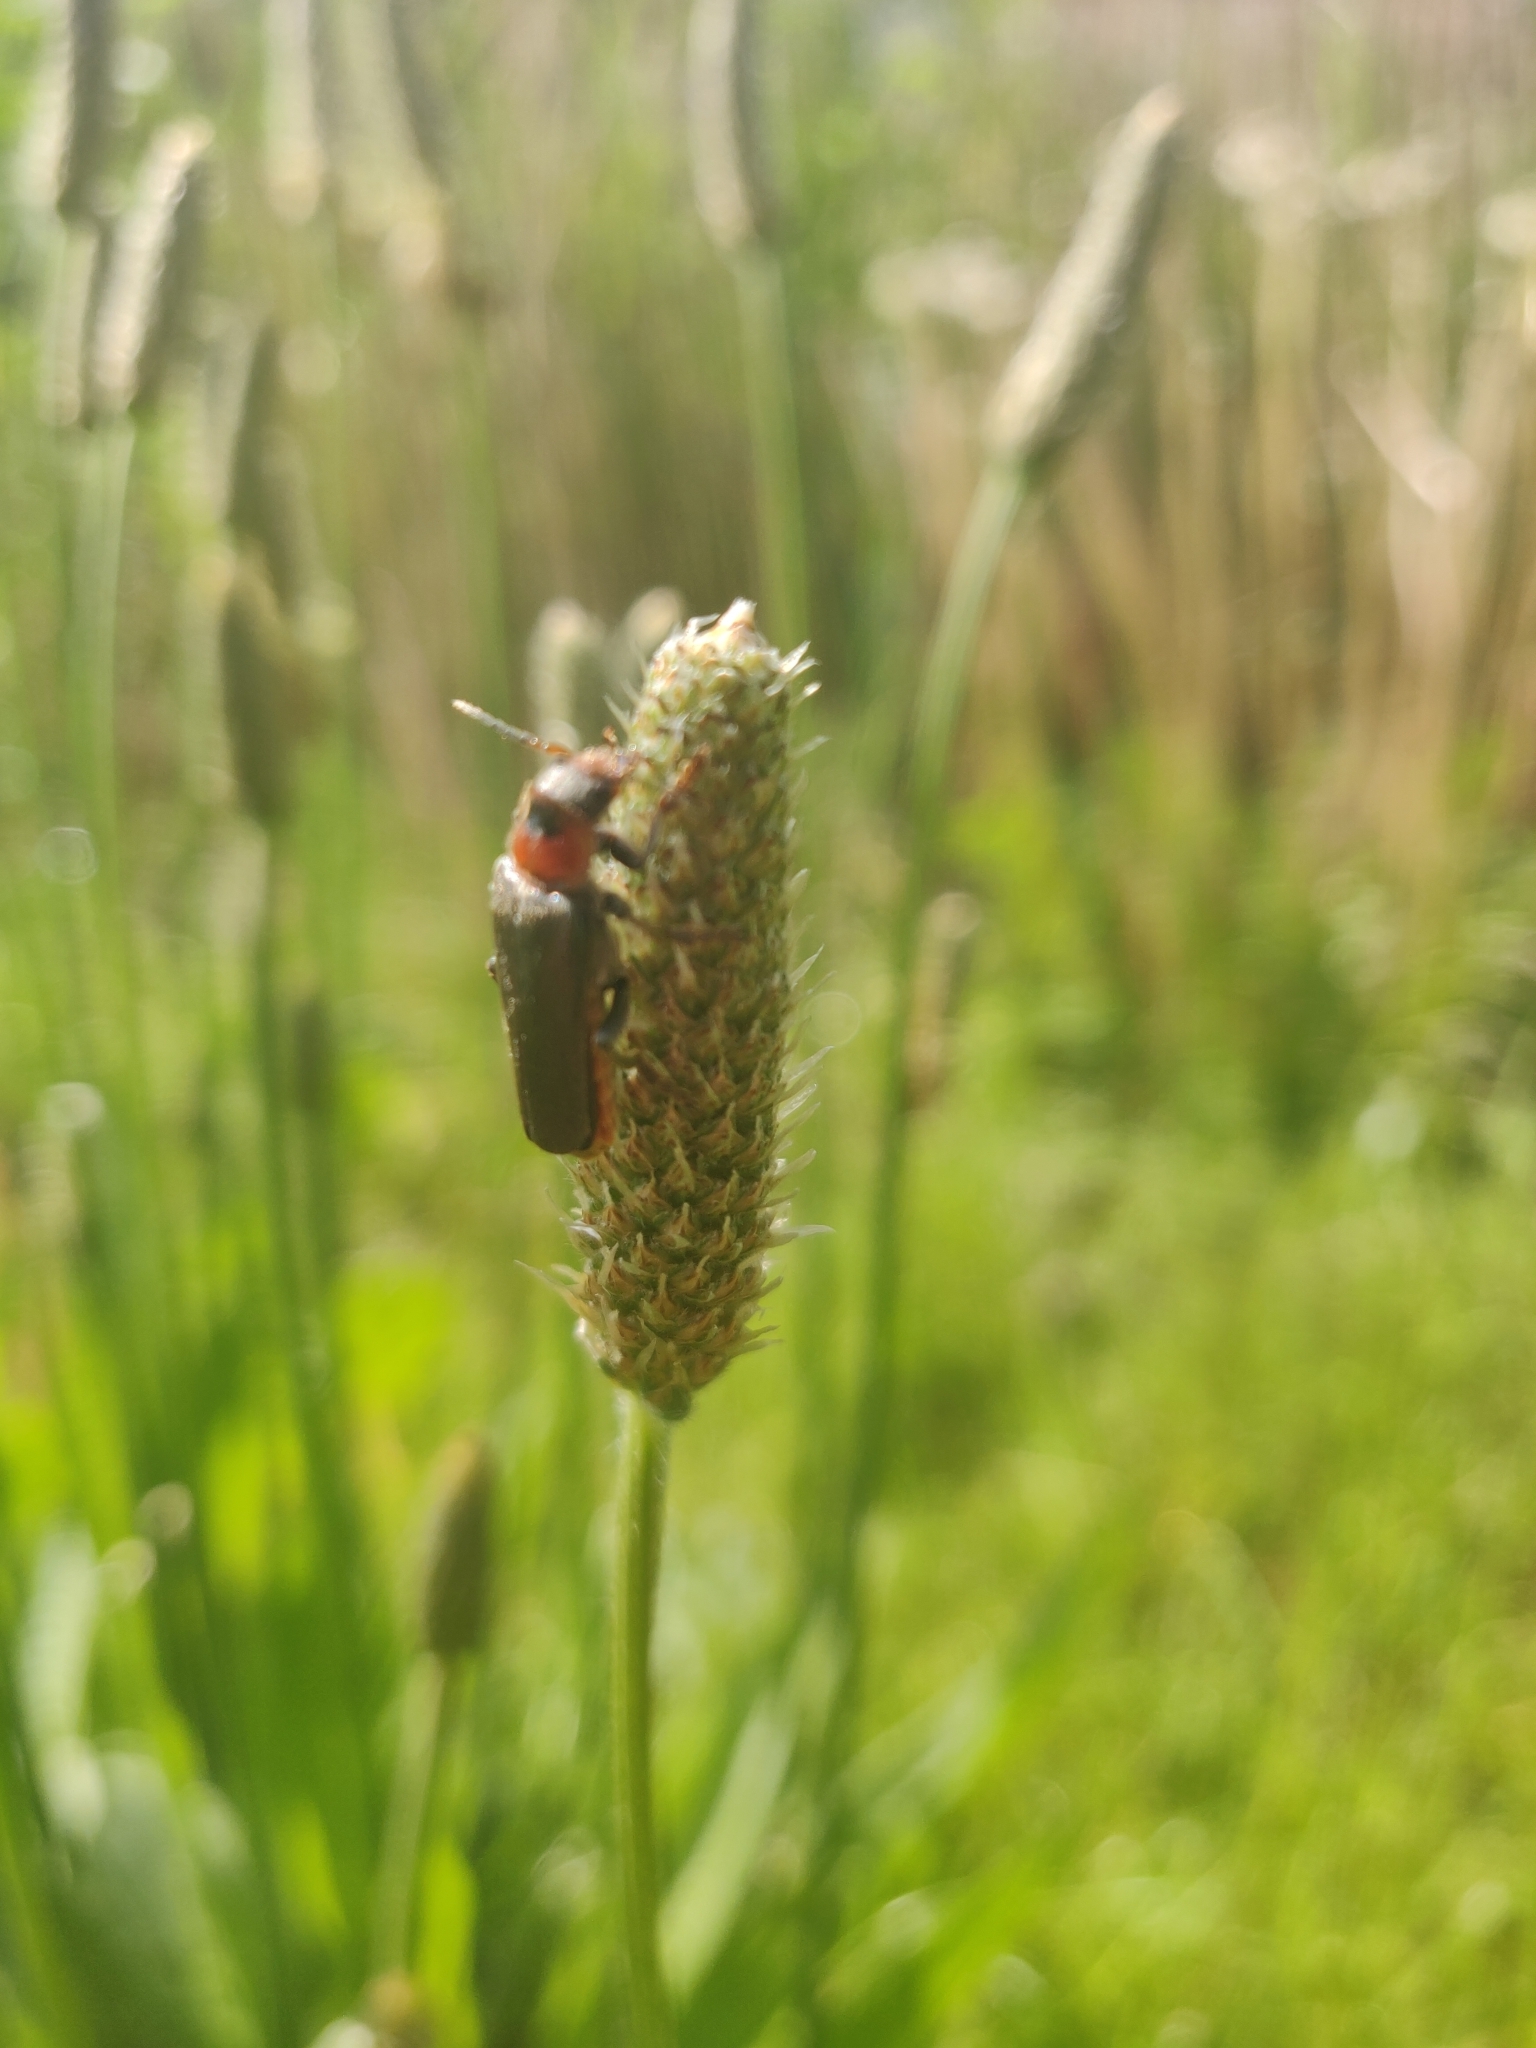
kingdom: Animalia
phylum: Arthropoda
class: Insecta
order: Coleoptera
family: Cantharidae
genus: Cantharis
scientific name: Cantharis fusca
